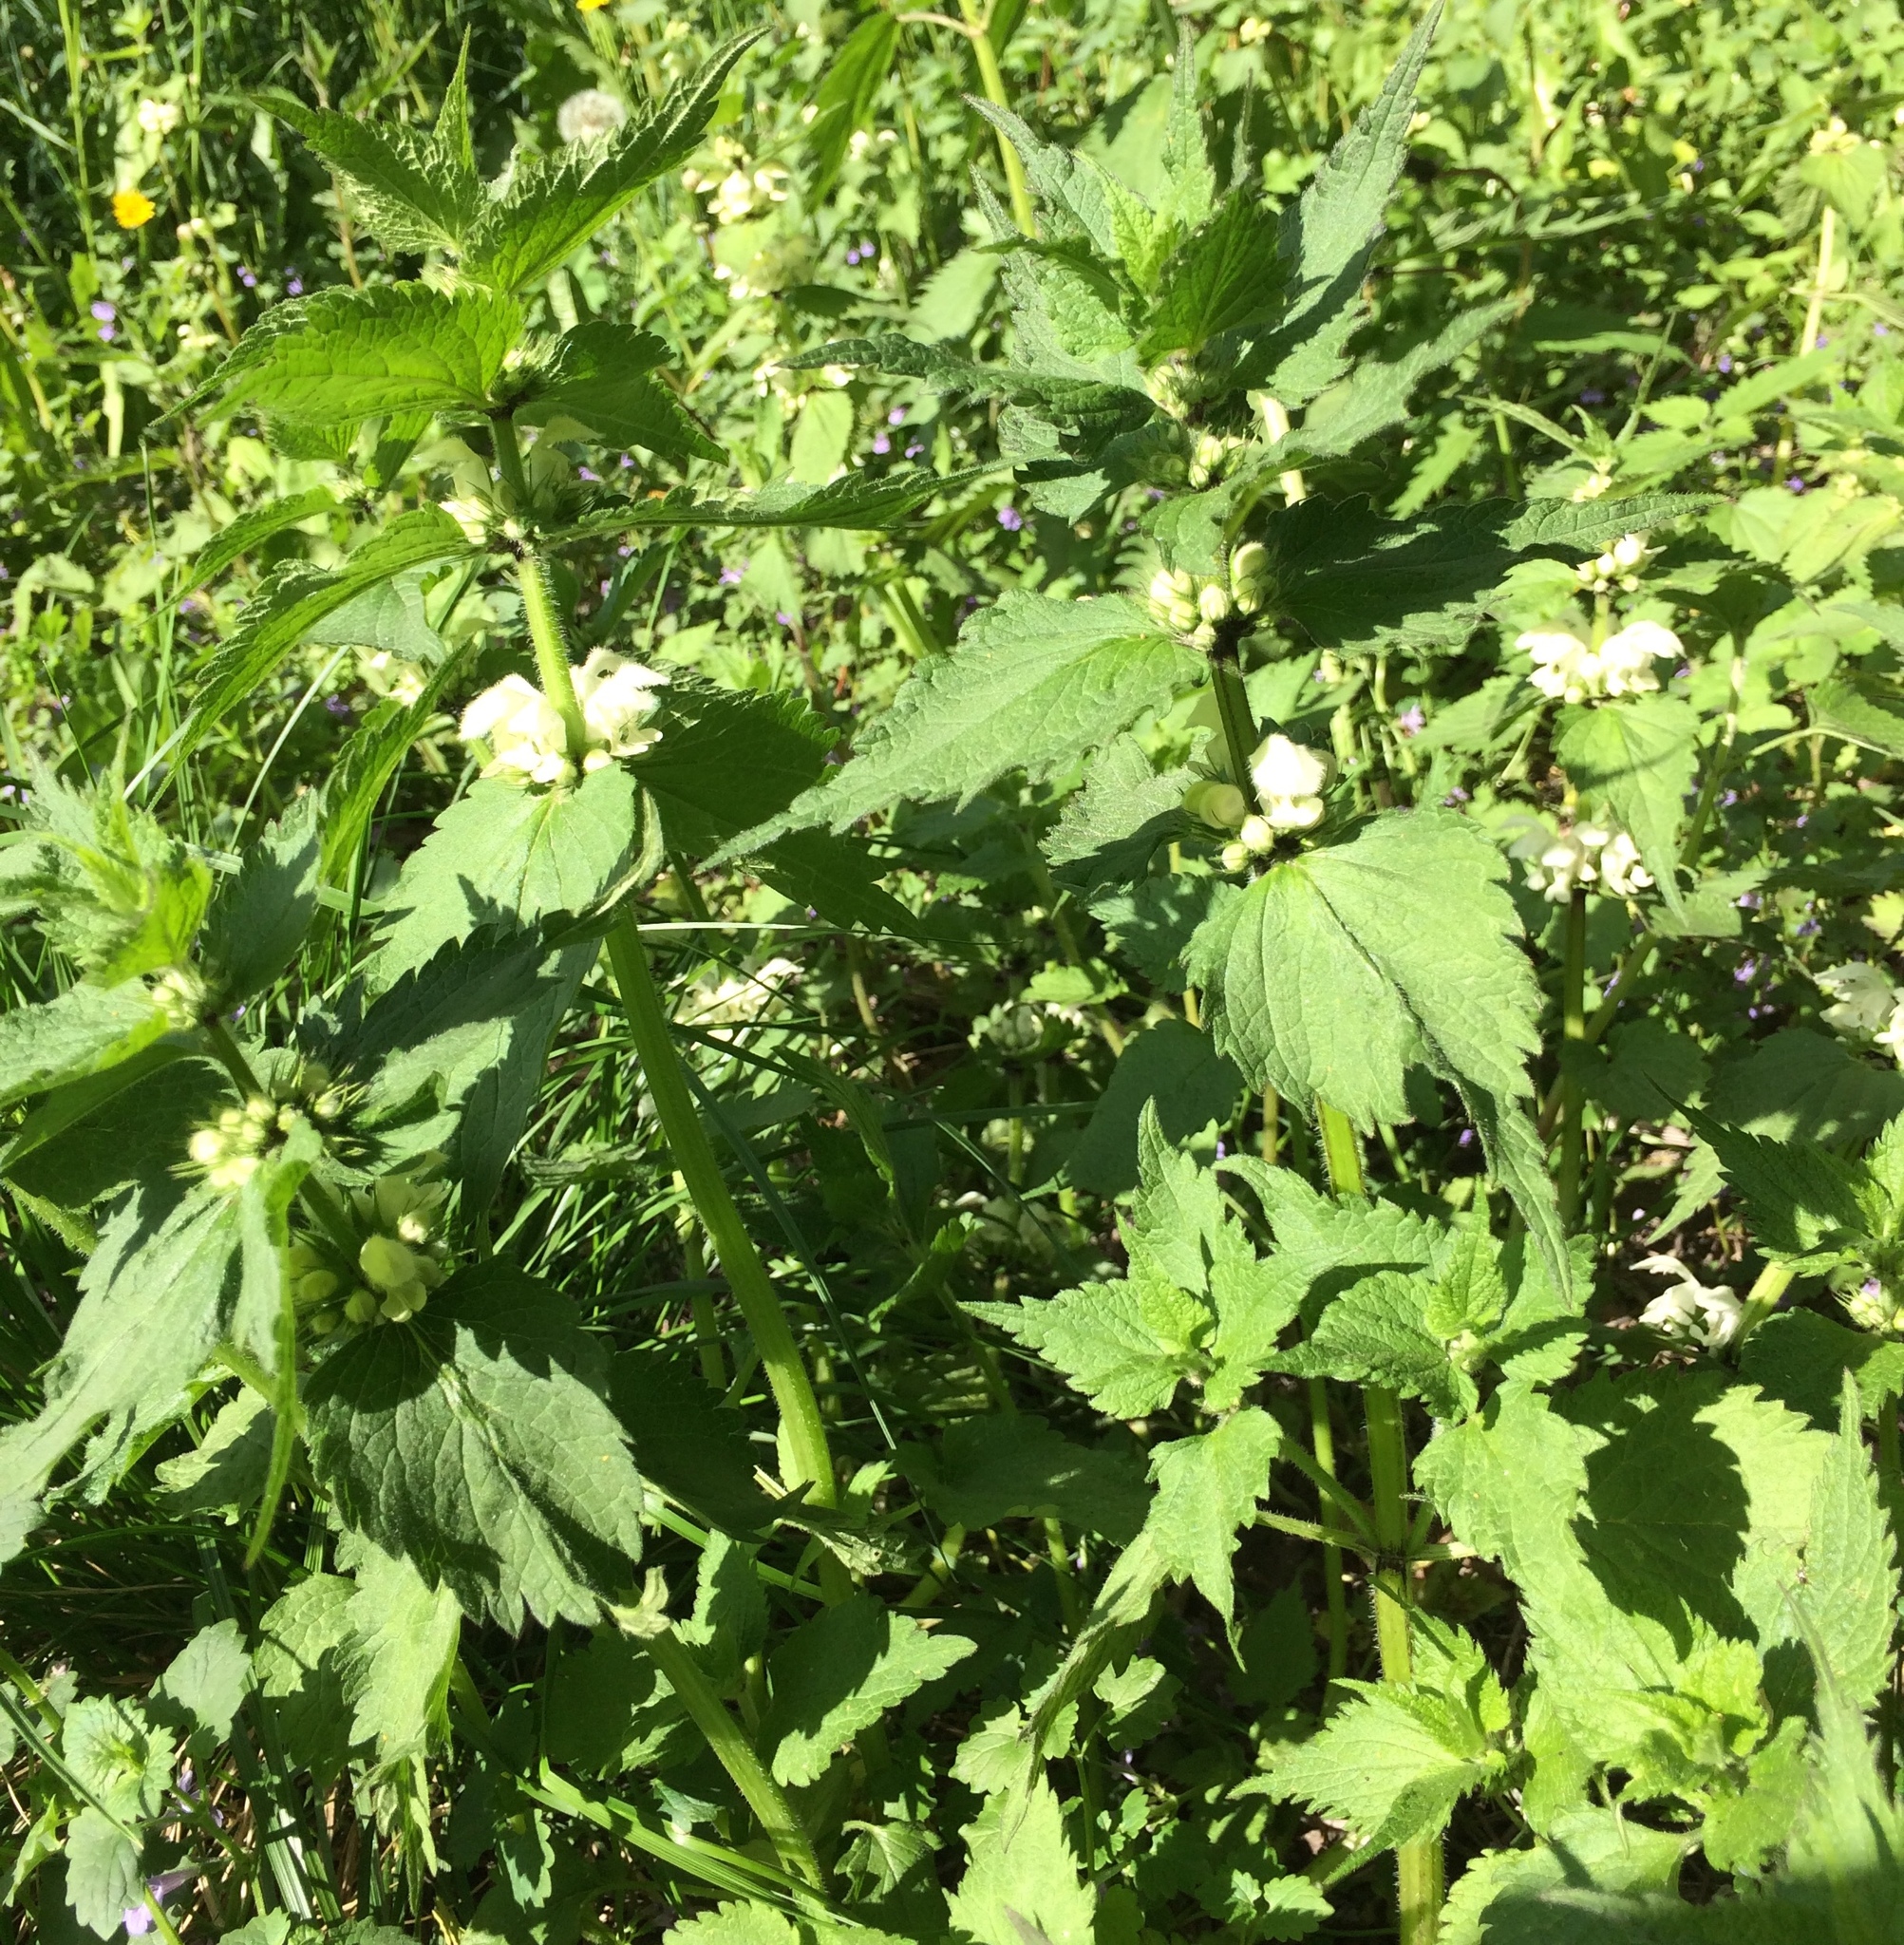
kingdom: Plantae
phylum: Tracheophyta
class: Magnoliopsida
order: Lamiales
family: Lamiaceae
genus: Lamium
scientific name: Lamium album
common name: White dead-nettle
